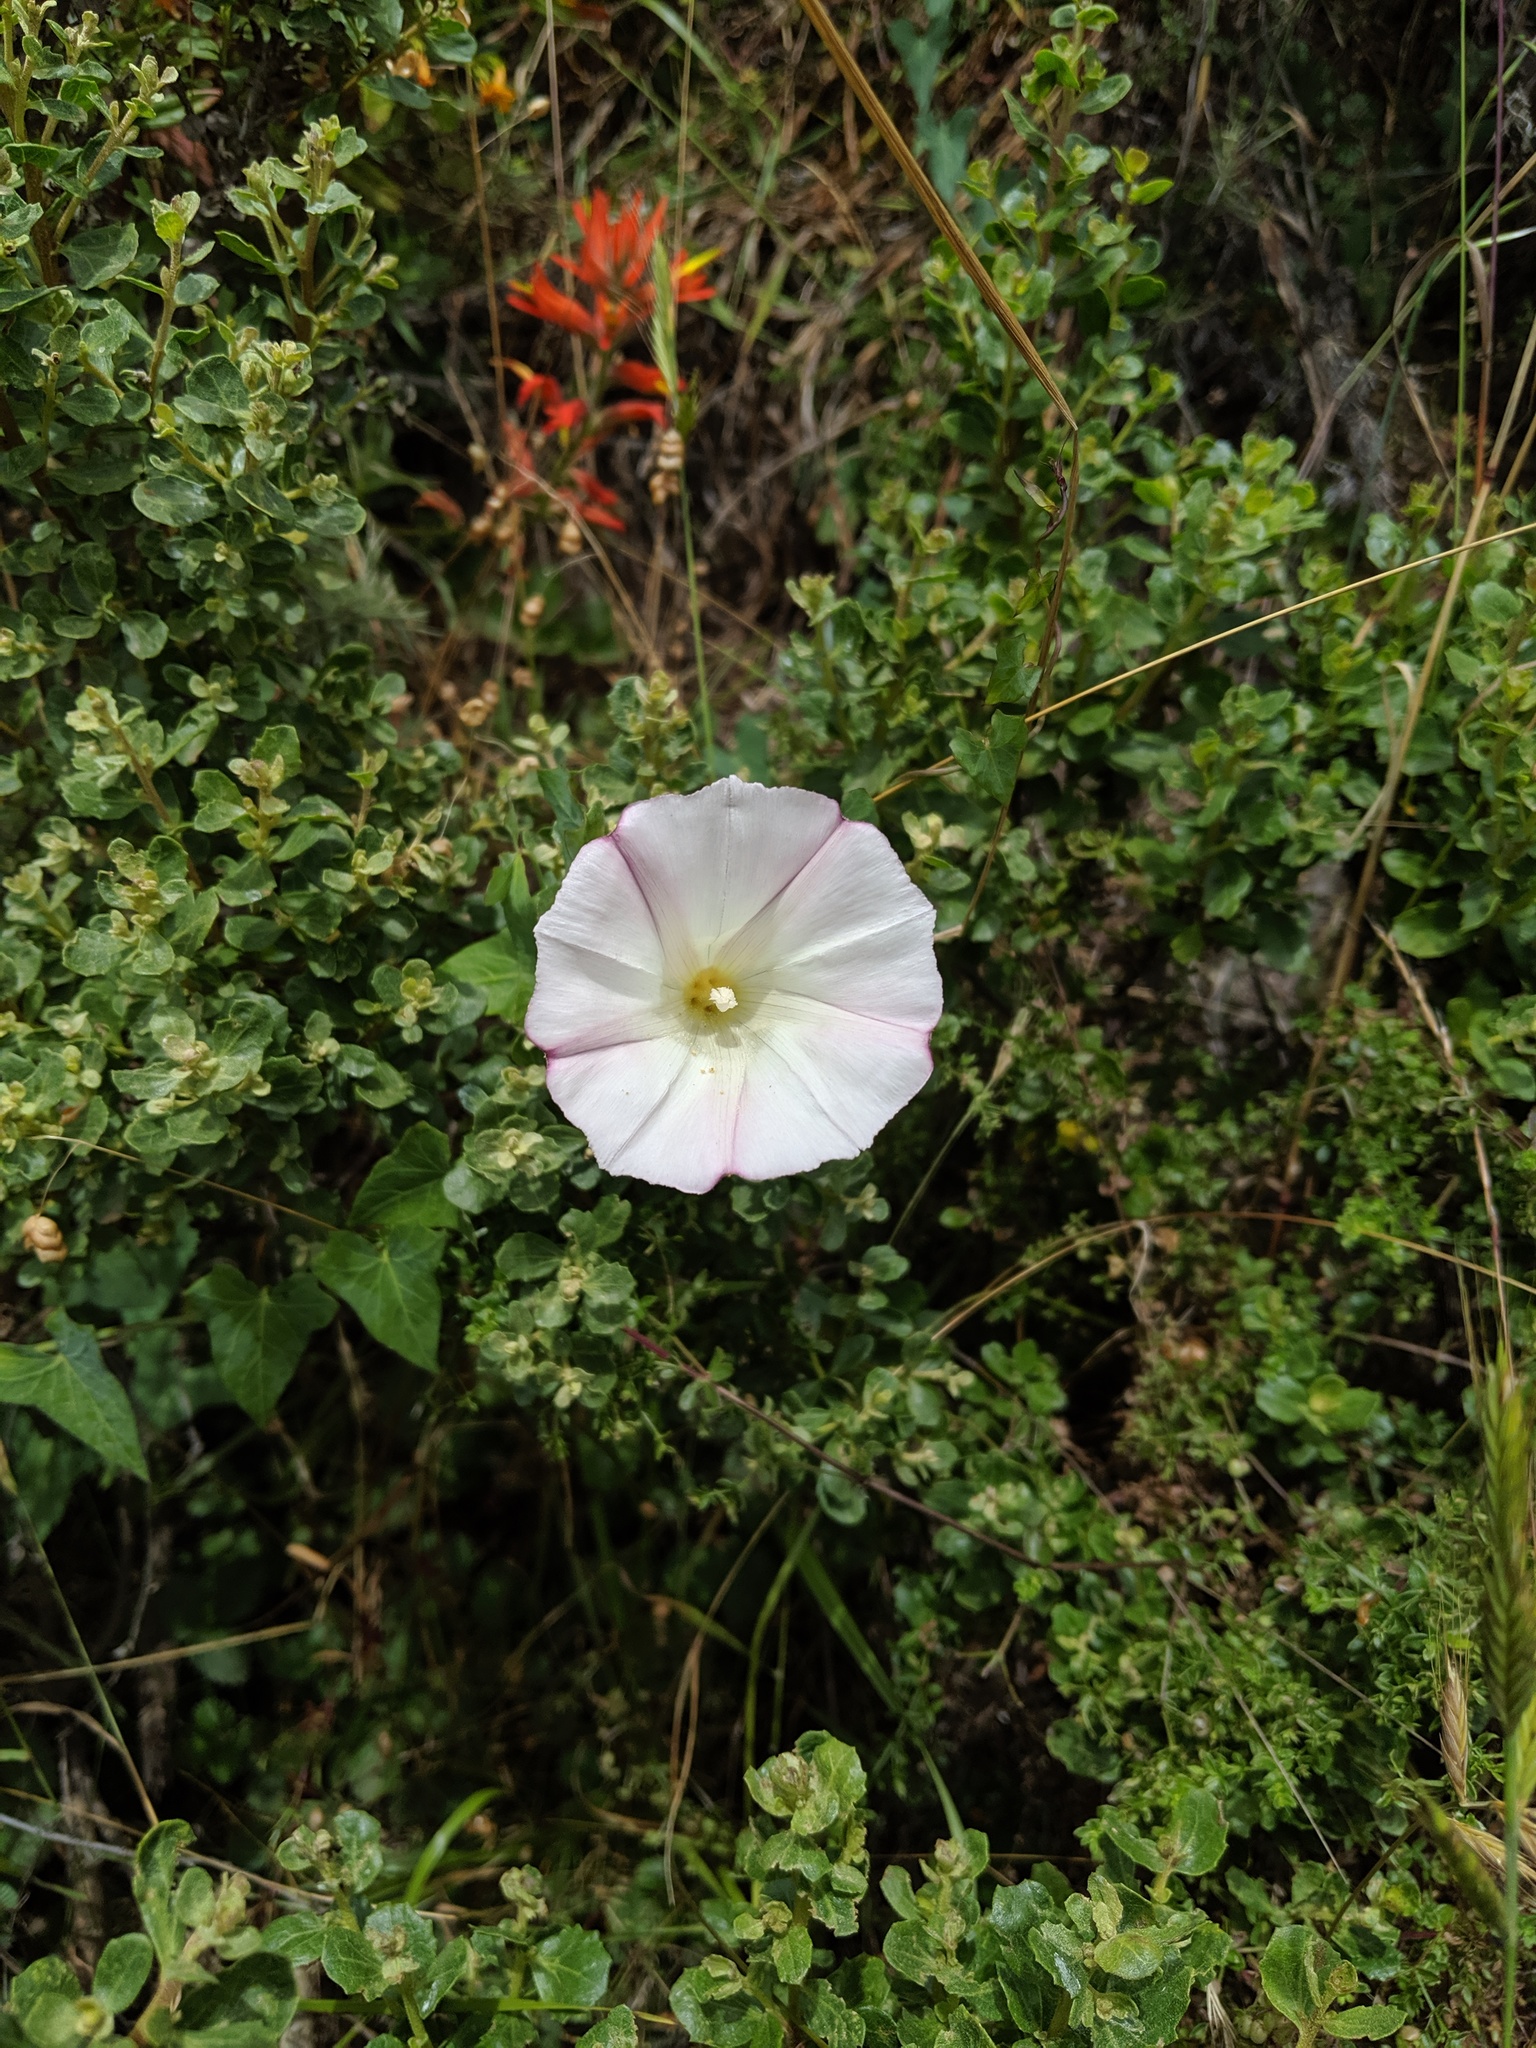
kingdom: Plantae
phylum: Tracheophyta
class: Magnoliopsida
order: Solanales
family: Convolvulaceae
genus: Calystegia
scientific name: Calystegia purpurata
